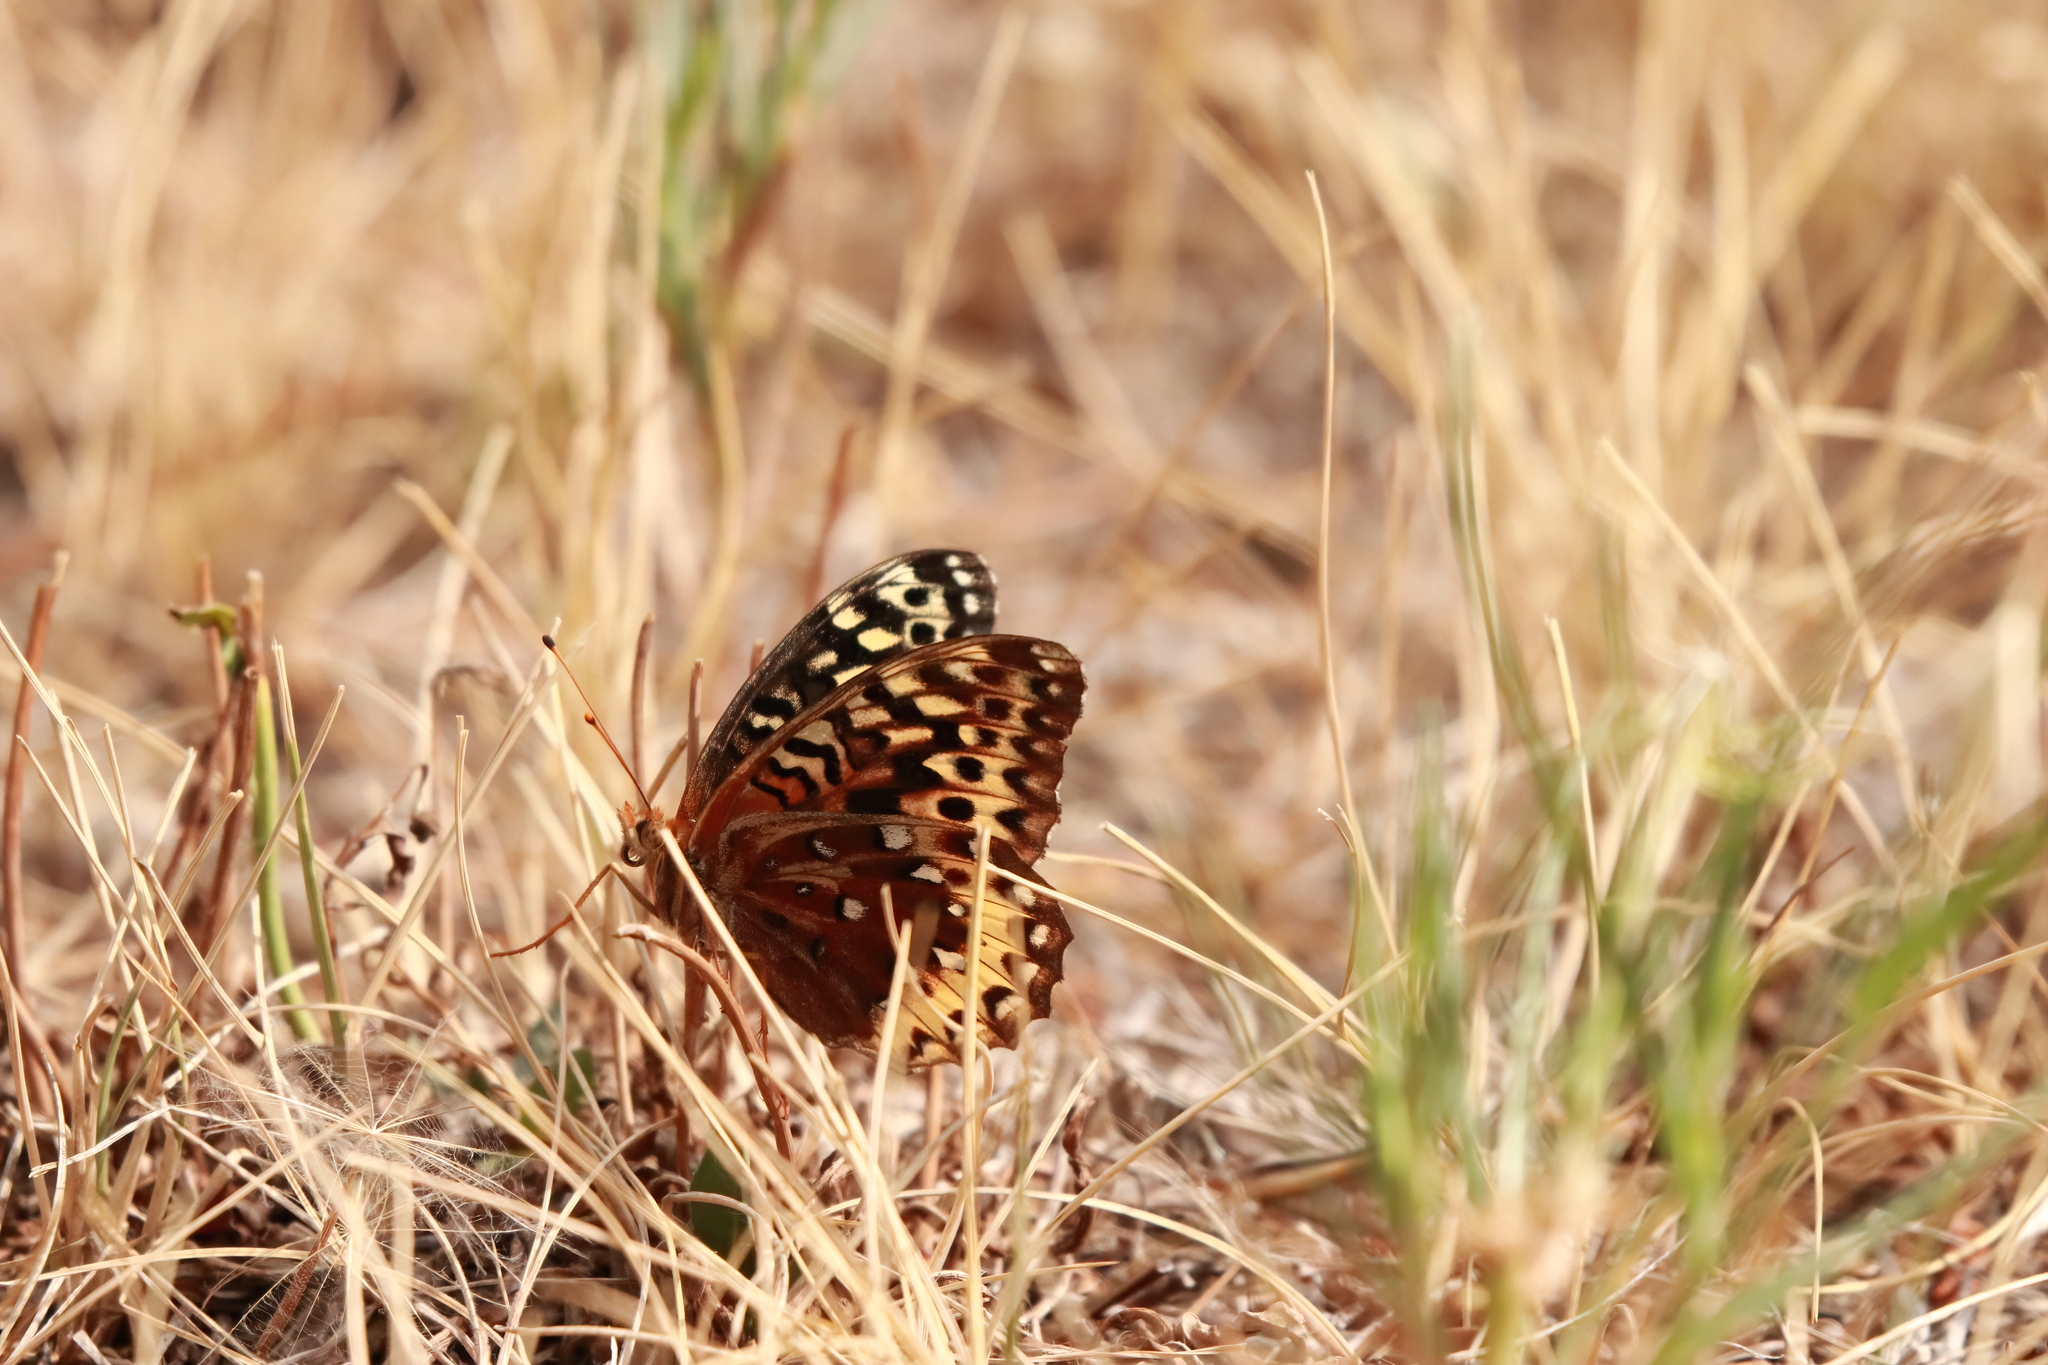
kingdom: Animalia
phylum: Arthropoda
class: Insecta
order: Lepidoptera
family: Nymphalidae
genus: Speyeria
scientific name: Speyeria cybele
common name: Great spangled fritillary
